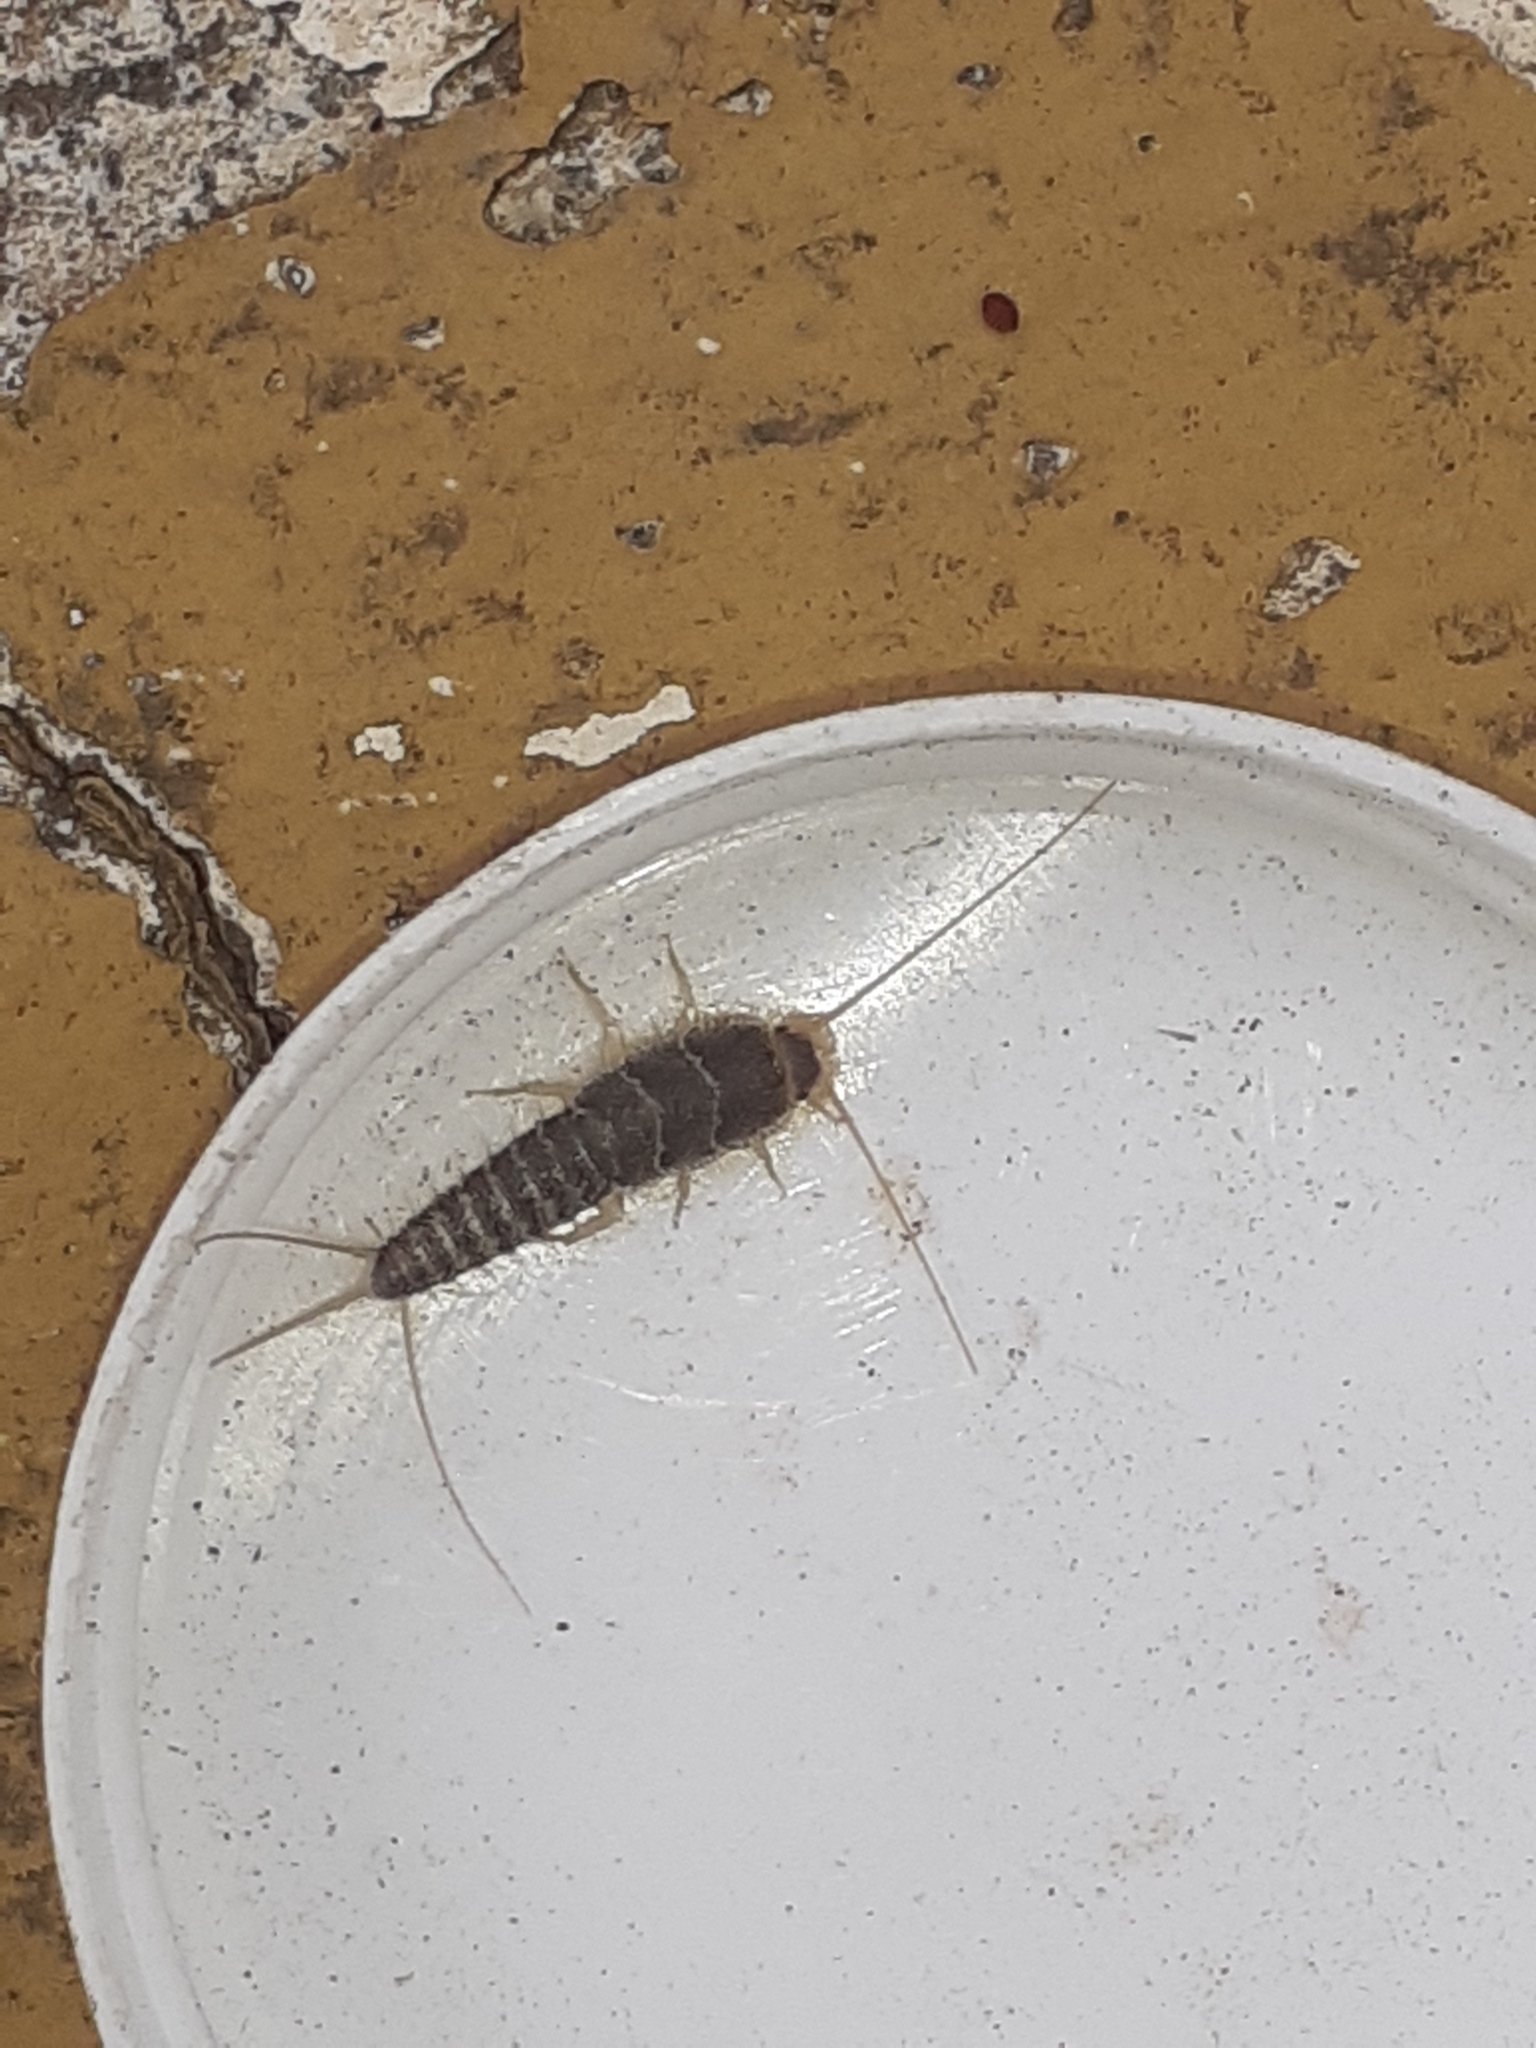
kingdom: Animalia
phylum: Arthropoda
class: Insecta
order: Zygentoma
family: Lepismatidae
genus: Ctenolepisma
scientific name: Ctenolepisma longicaudatum
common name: Silverfish
